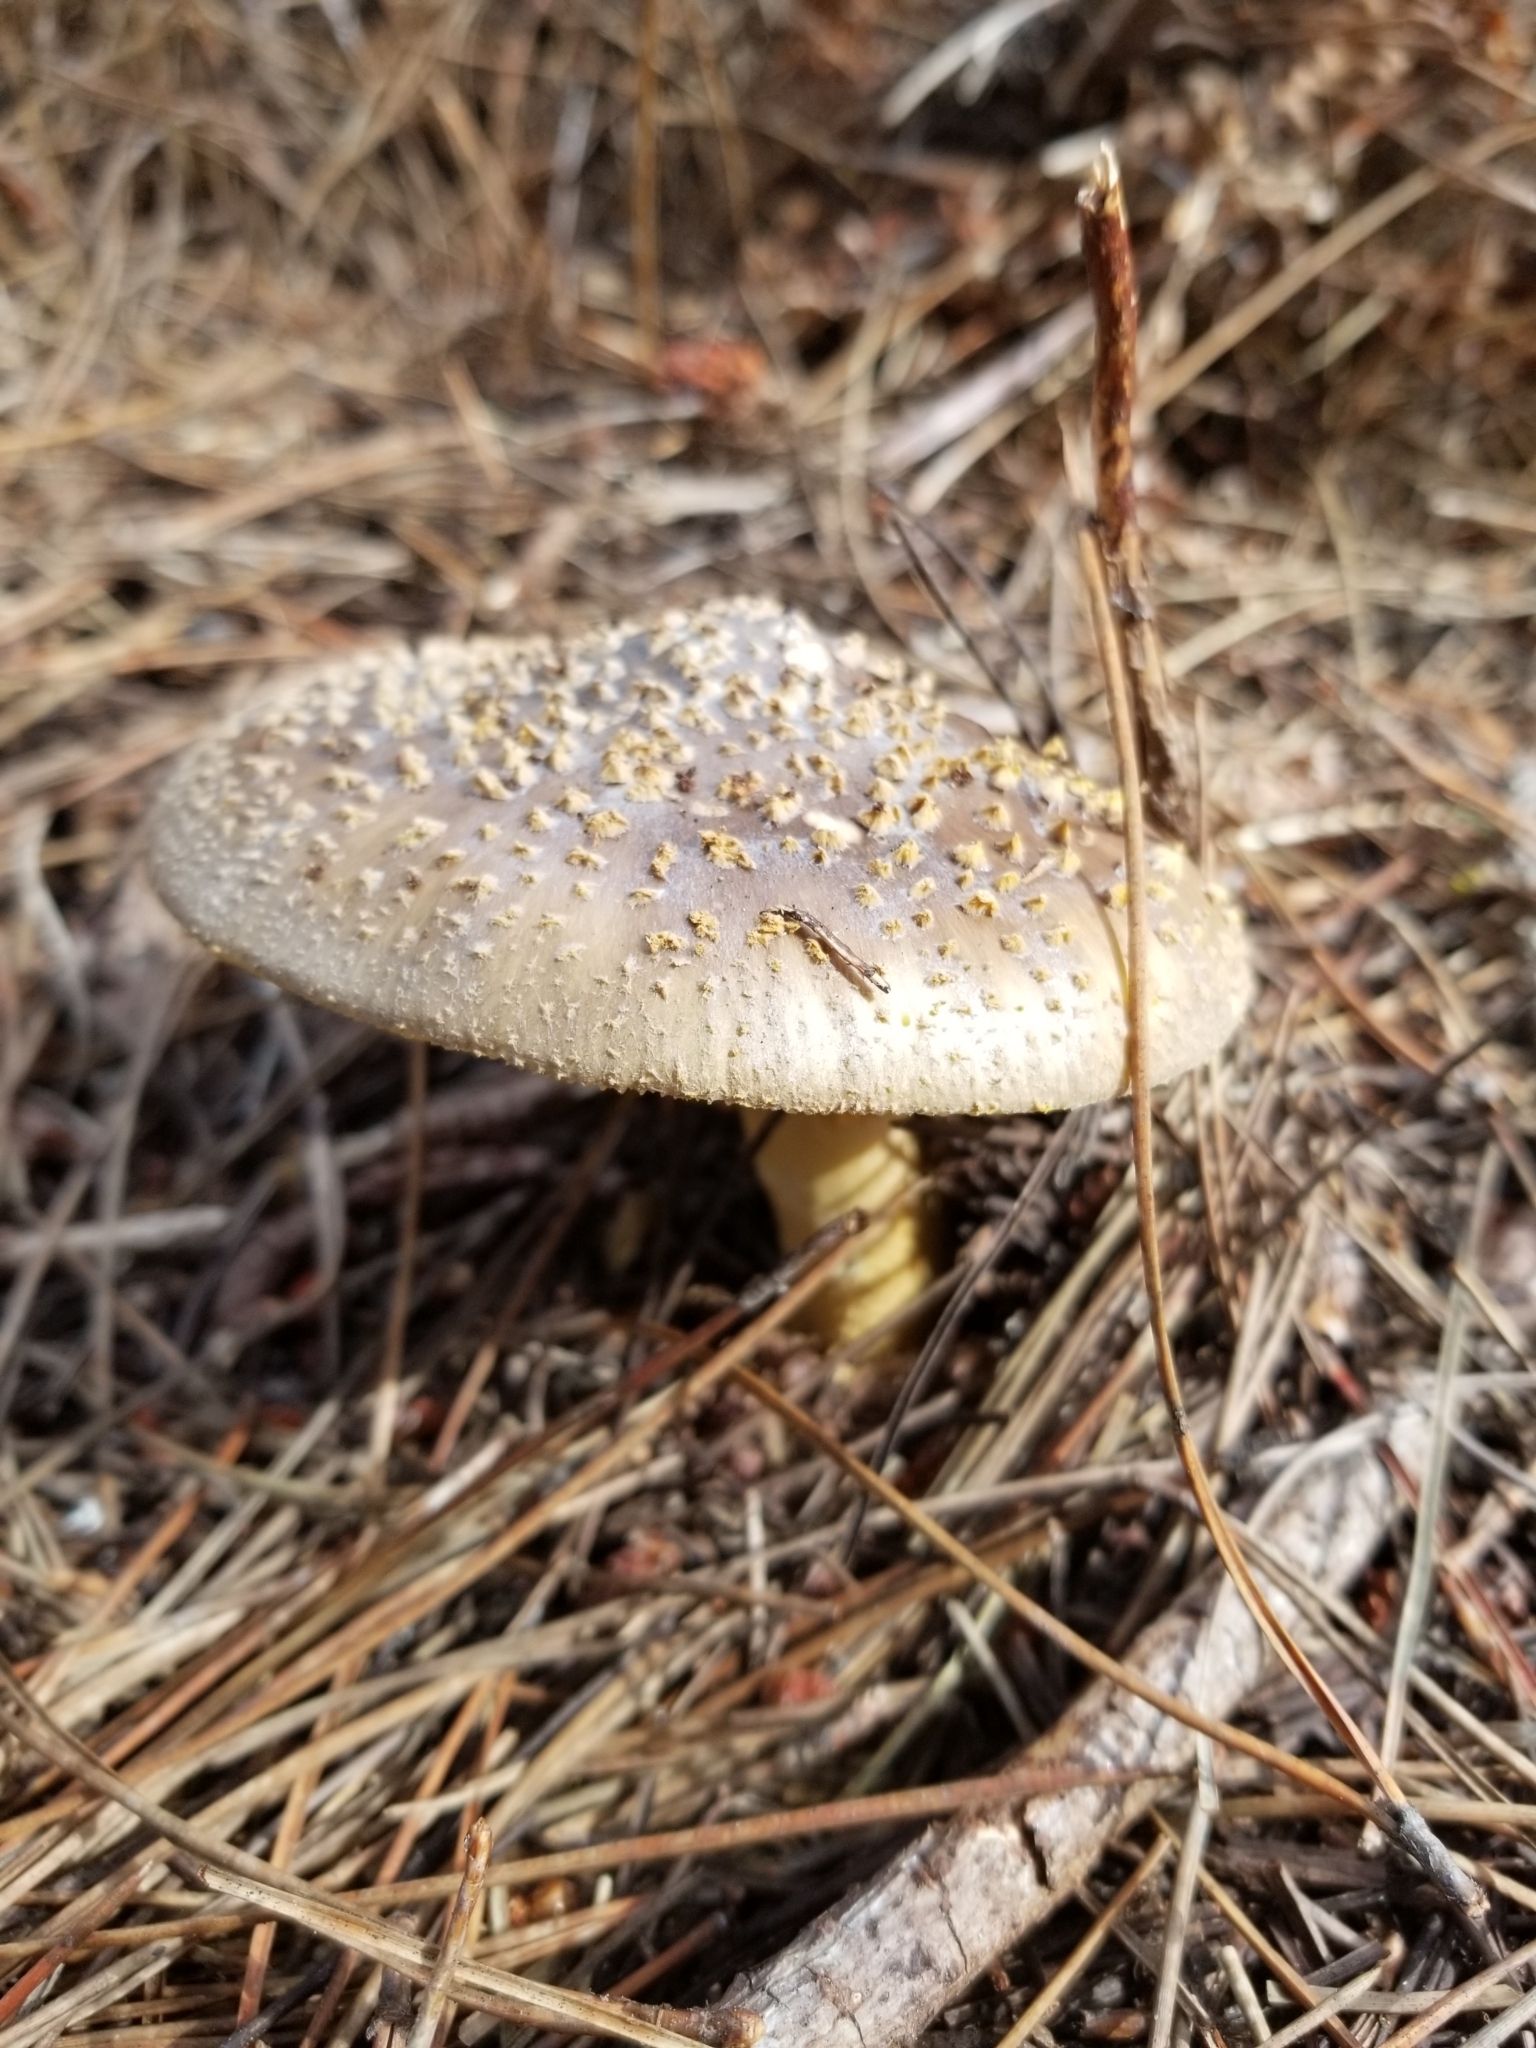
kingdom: Fungi
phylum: Basidiomycota
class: Agaricomycetes
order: Agaricales
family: Amanitaceae
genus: Amanita
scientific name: Amanita augusta
